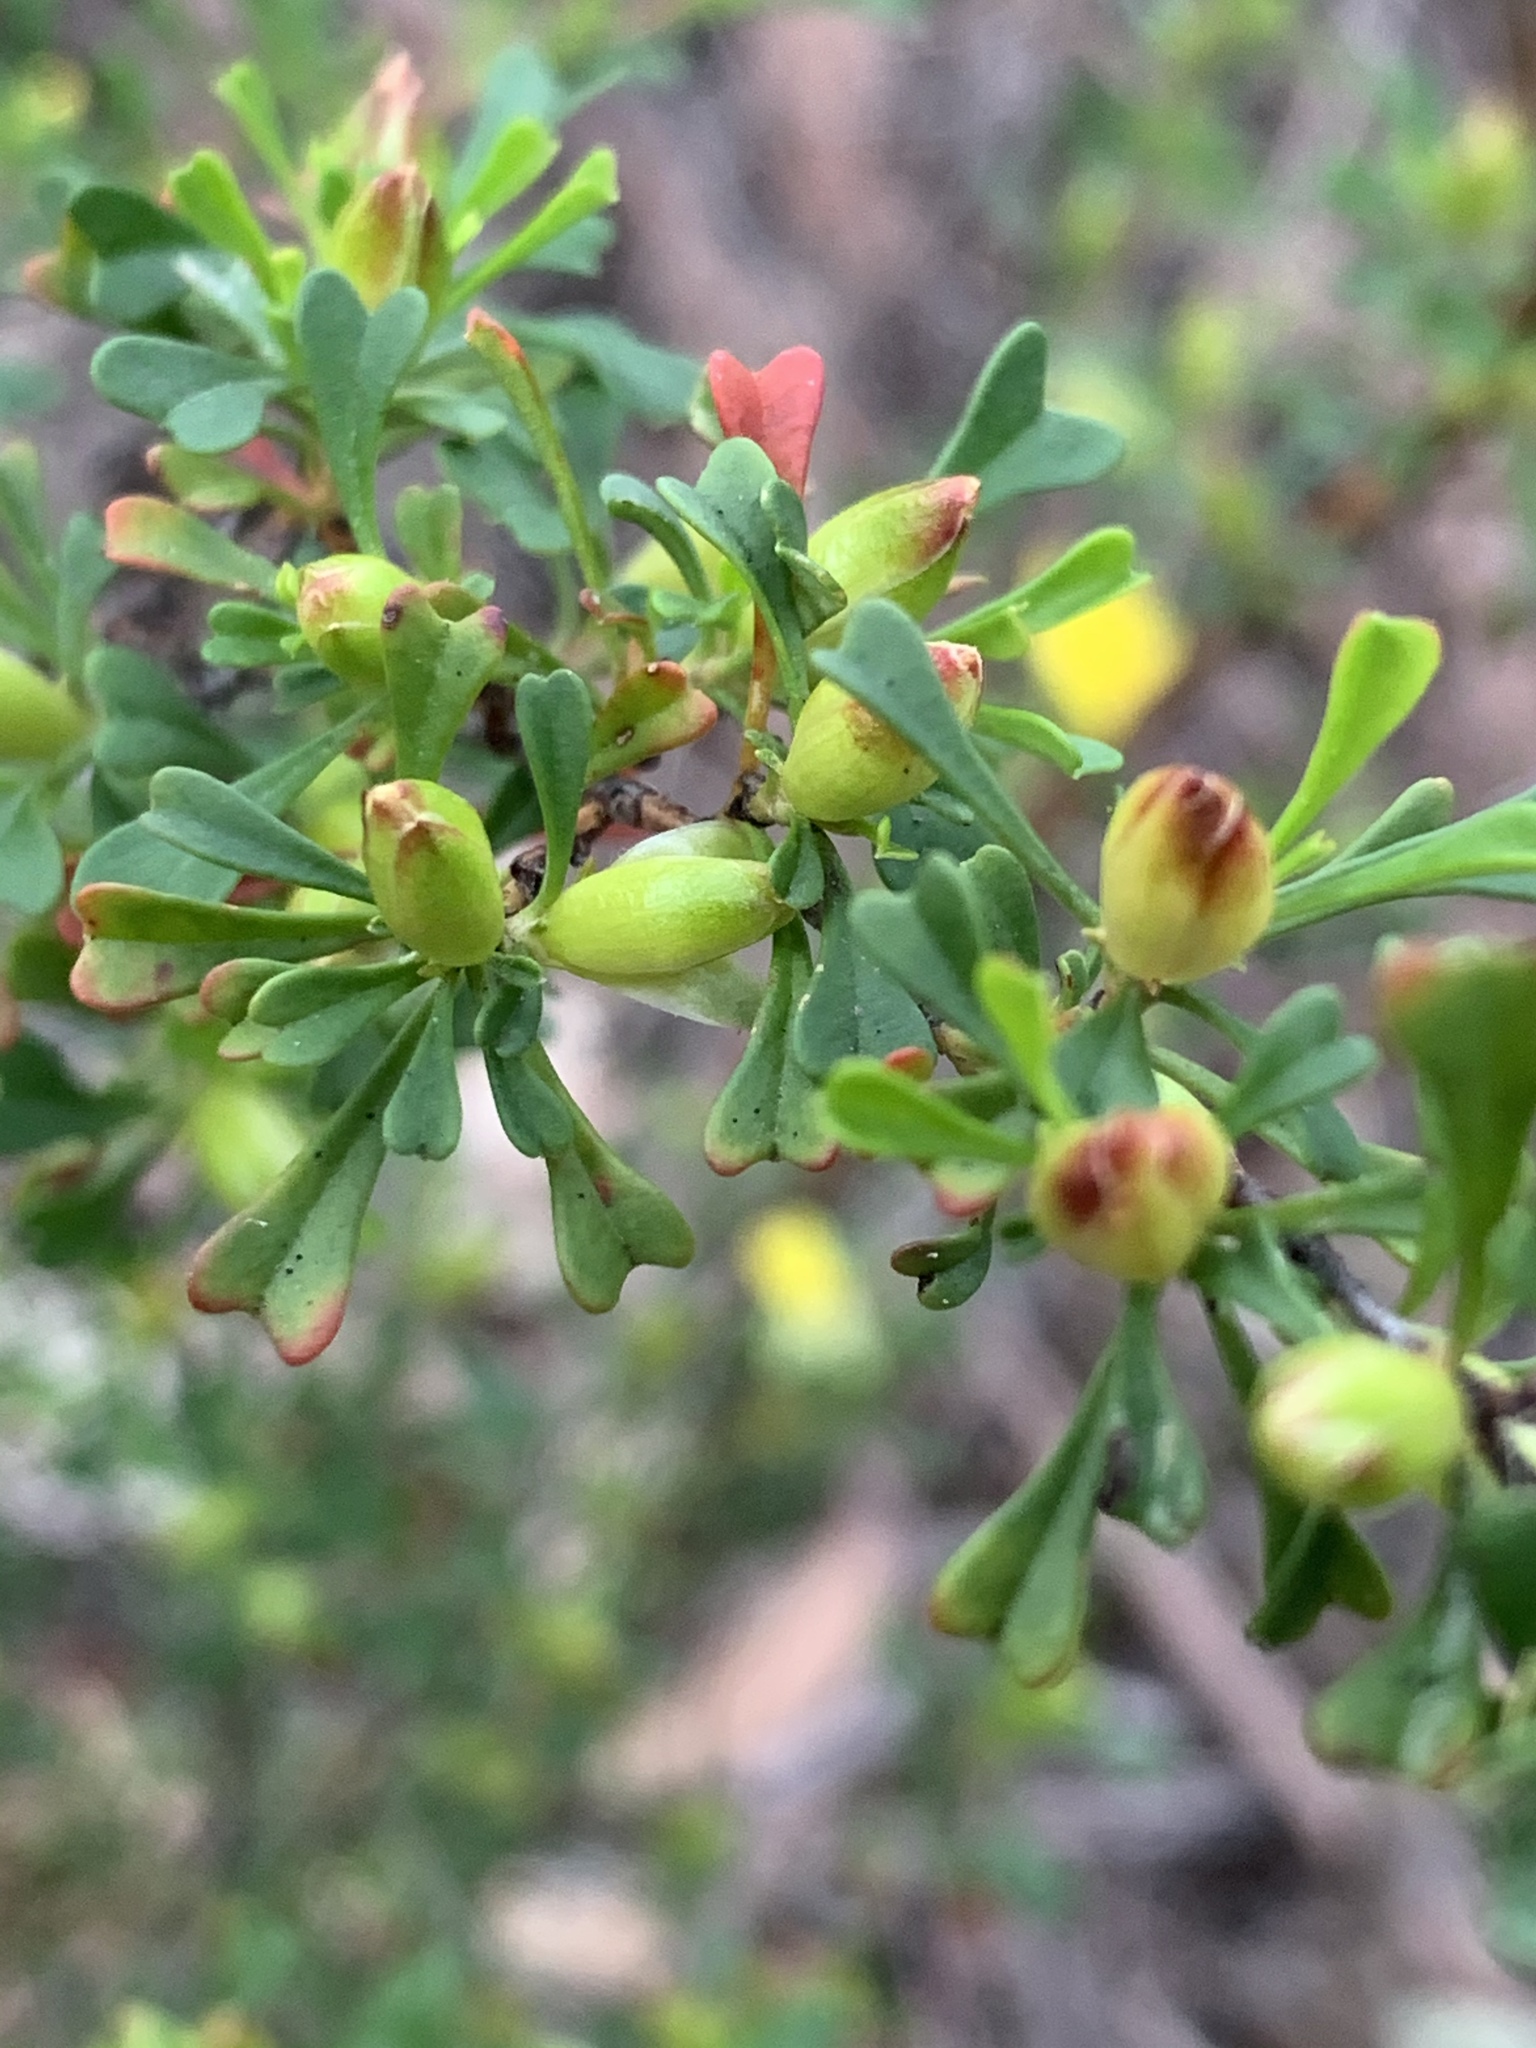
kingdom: Plantae
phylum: Tracheophyta
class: Magnoliopsida
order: Dilleniales
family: Dilleniaceae
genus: Hibbertia
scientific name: Hibbertia monogyna
